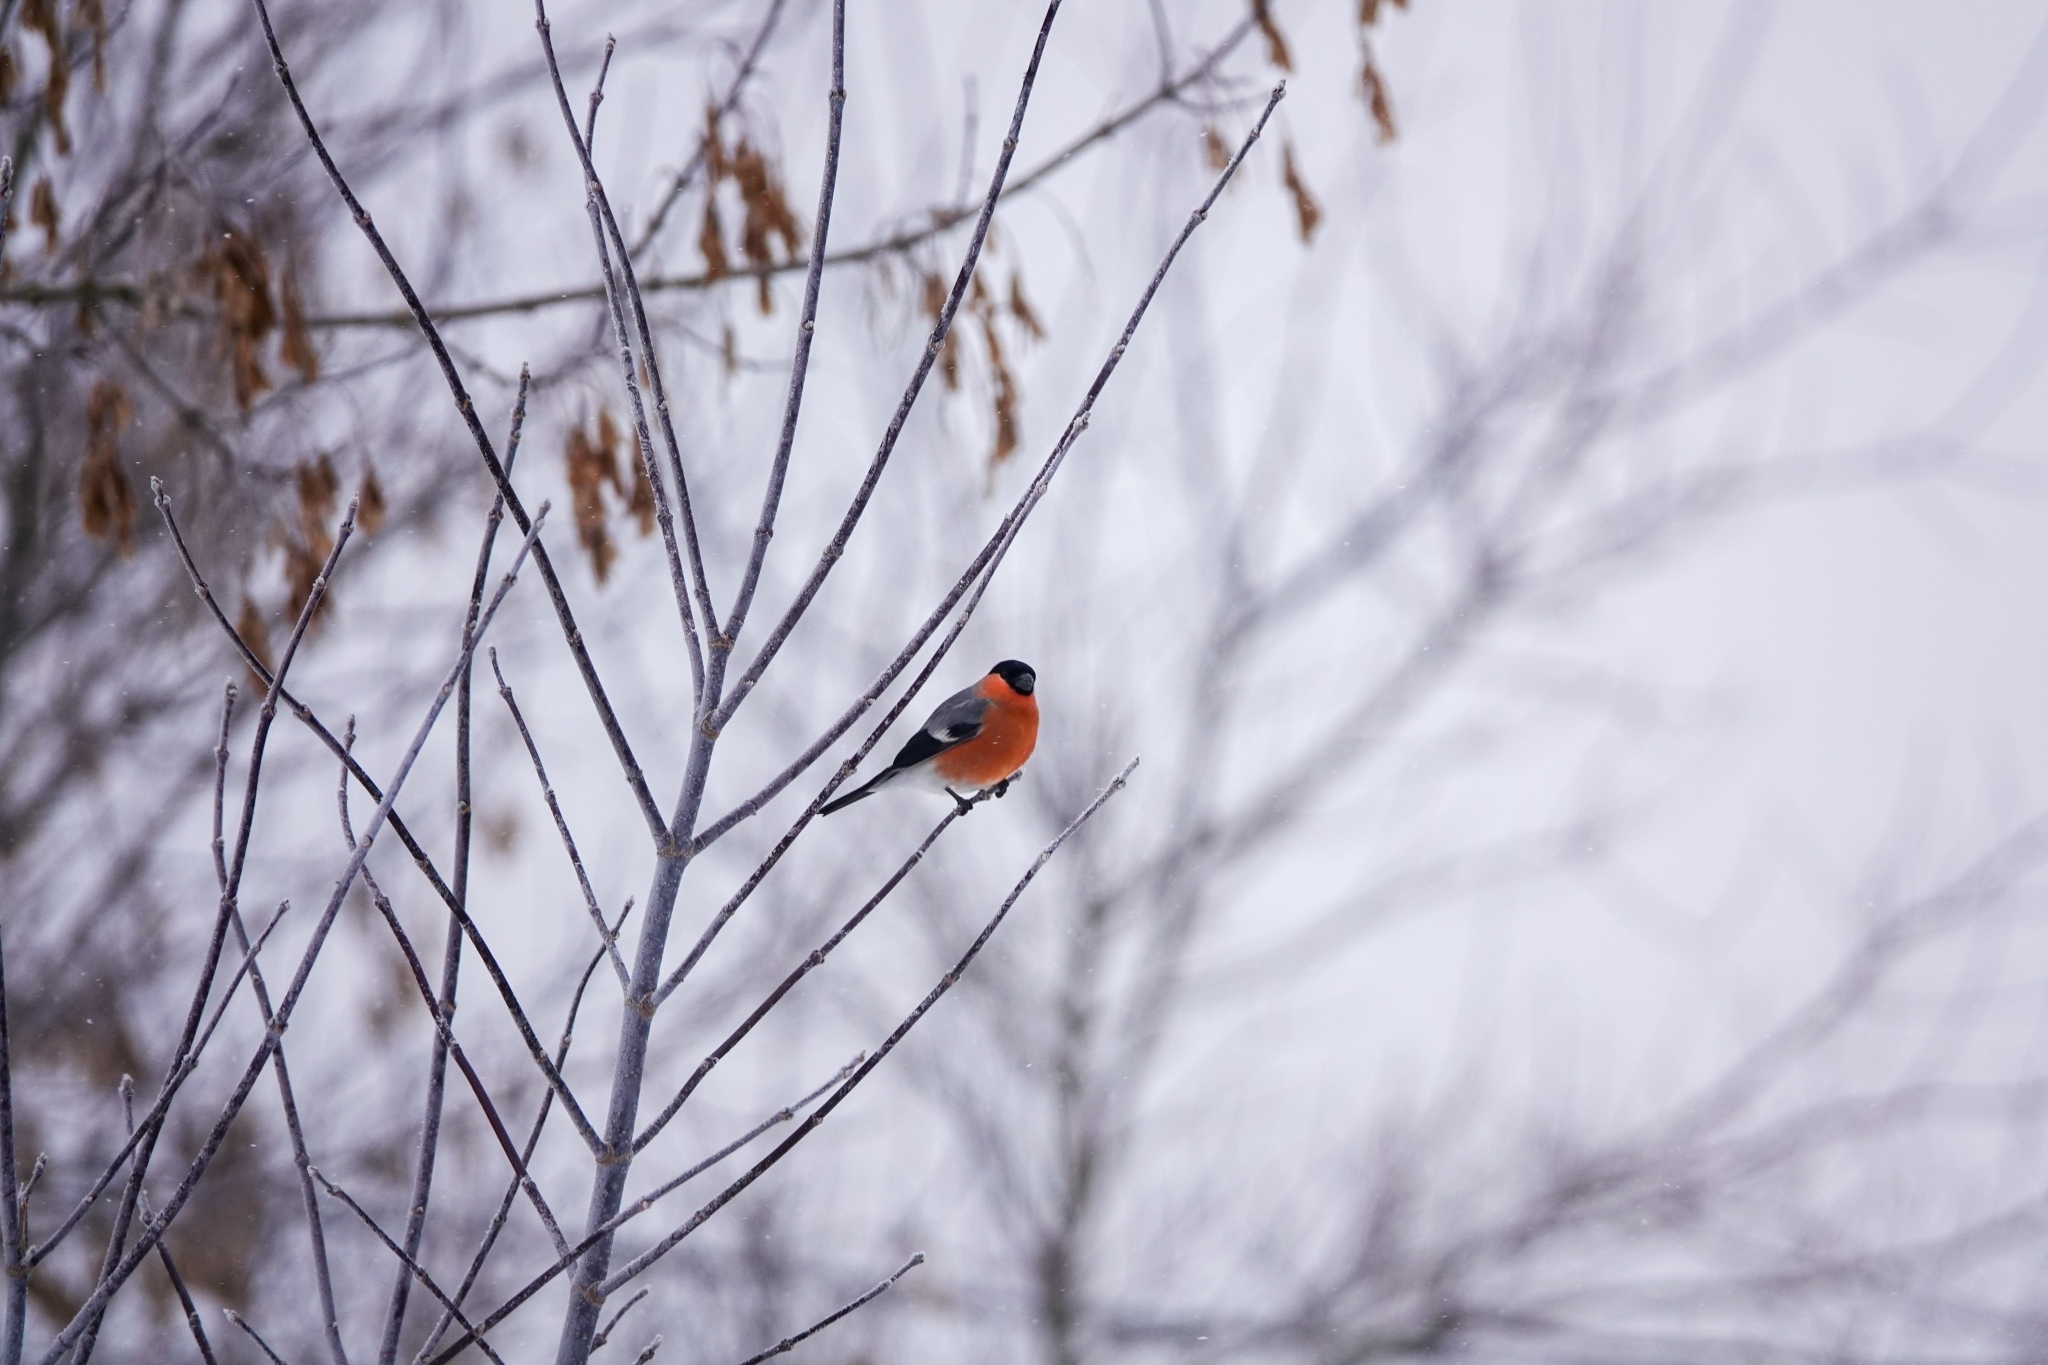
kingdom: Animalia
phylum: Chordata
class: Aves
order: Passeriformes
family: Fringillidae
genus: Pyrrhula
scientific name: Pyrrhula pyrrhula
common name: Eurasian bullfinch
